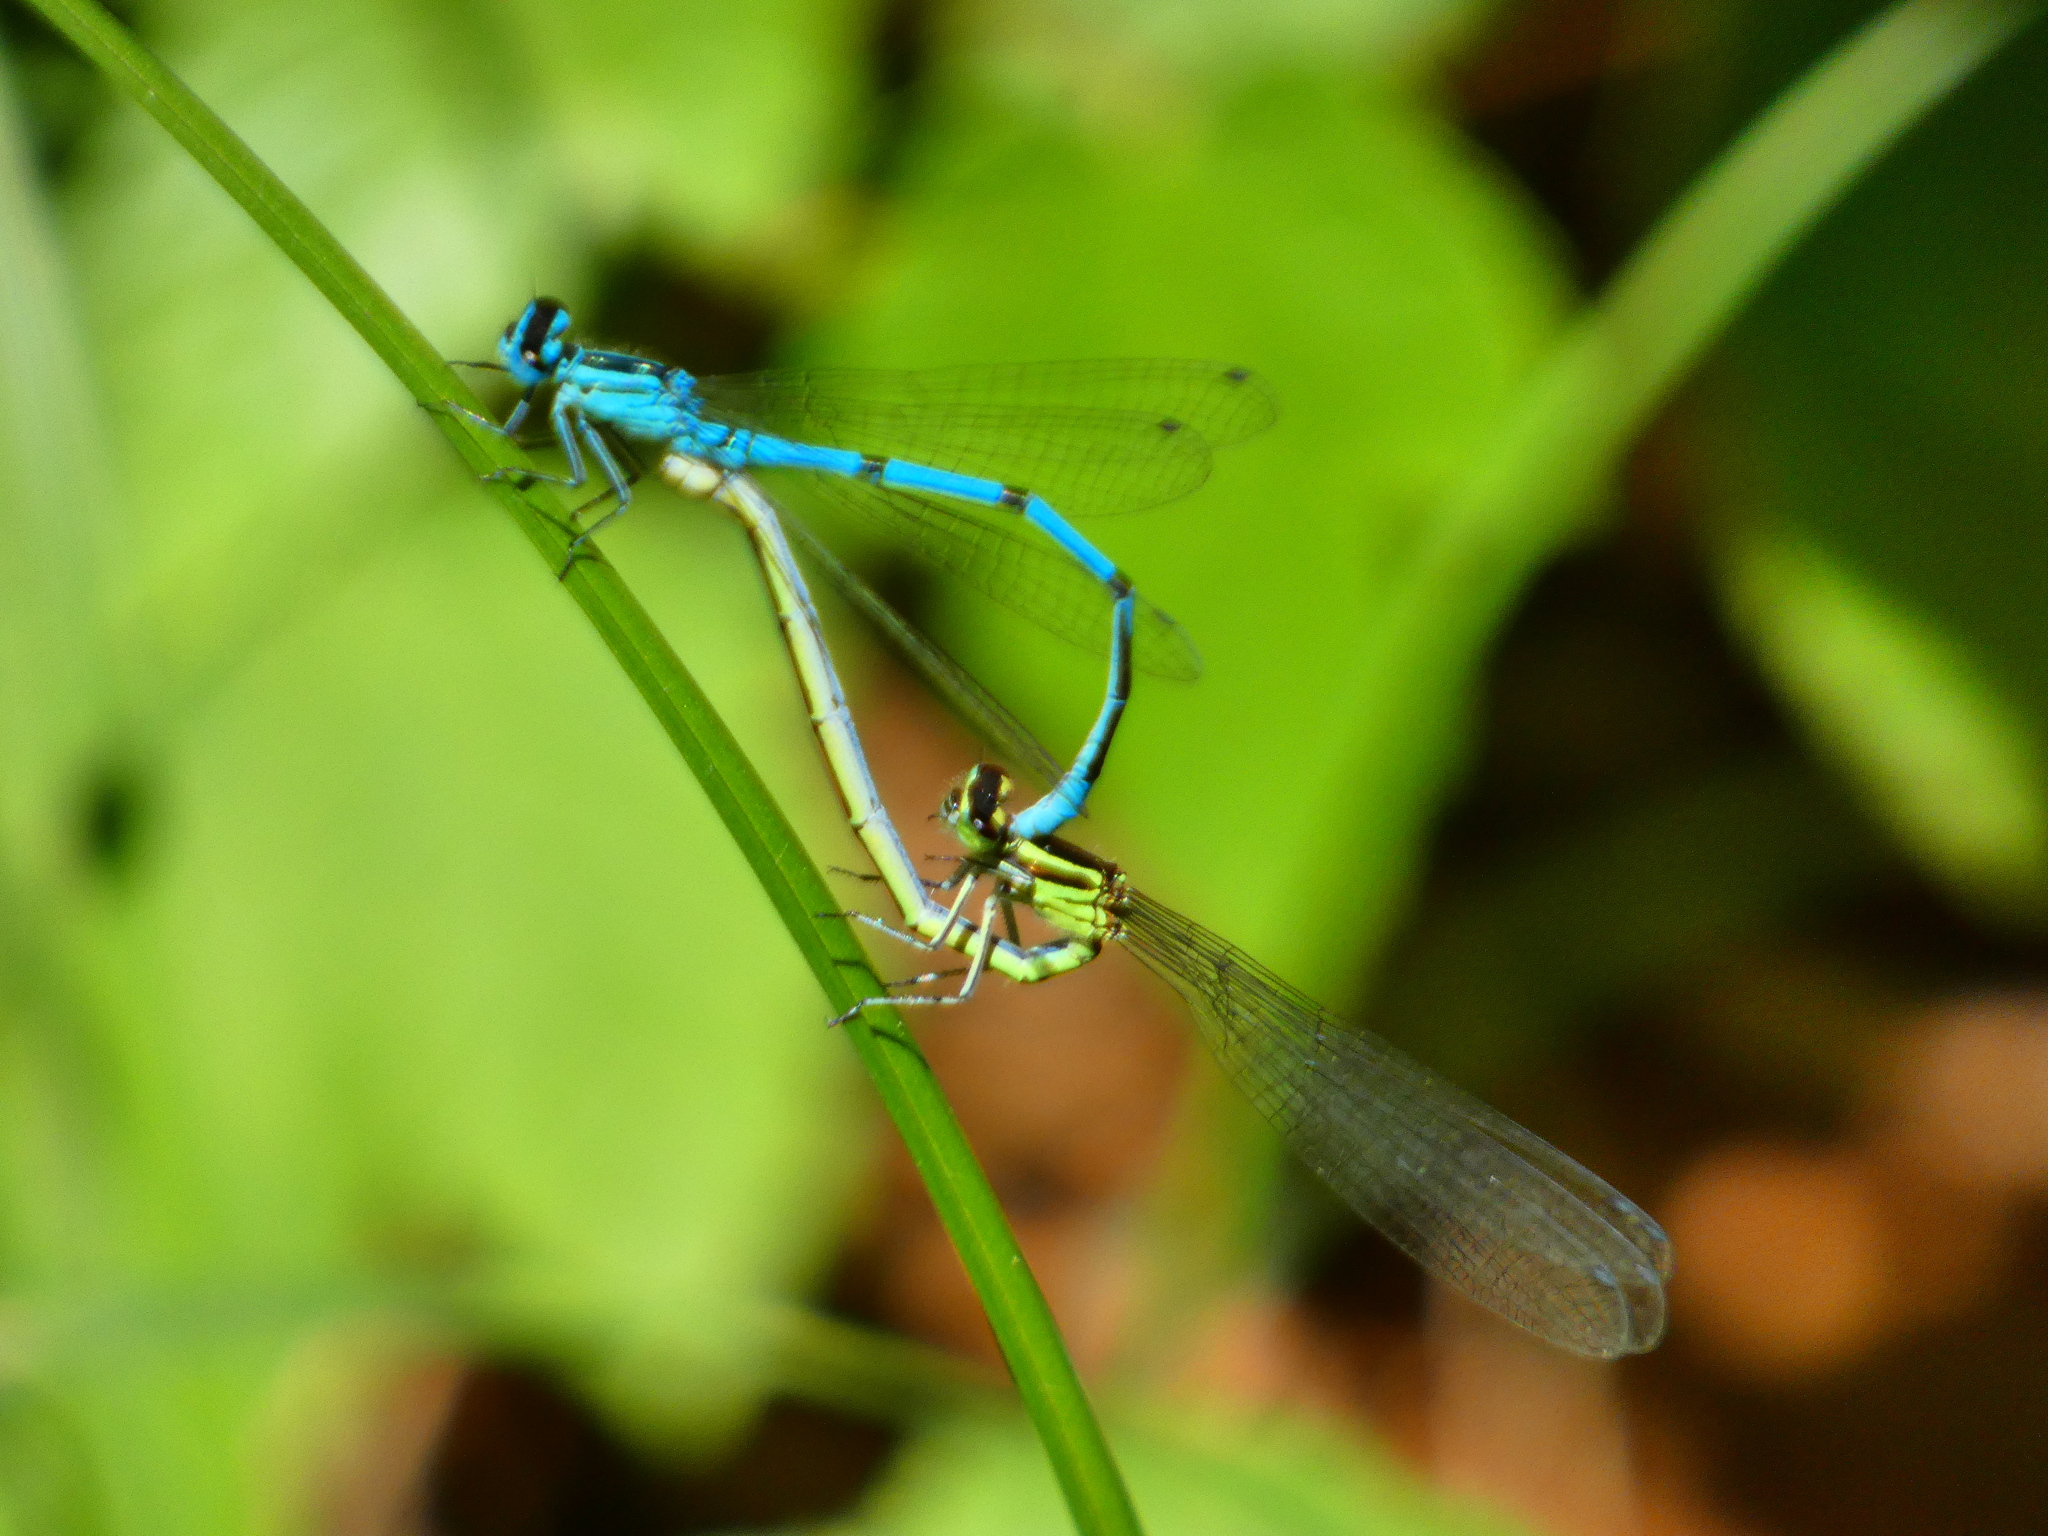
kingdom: Animalia
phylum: Arthropoda
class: Insecta
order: Odonata
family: Coenagrionidae
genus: Coenagrion
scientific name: Coenagrion puella
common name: Azure damselfly
